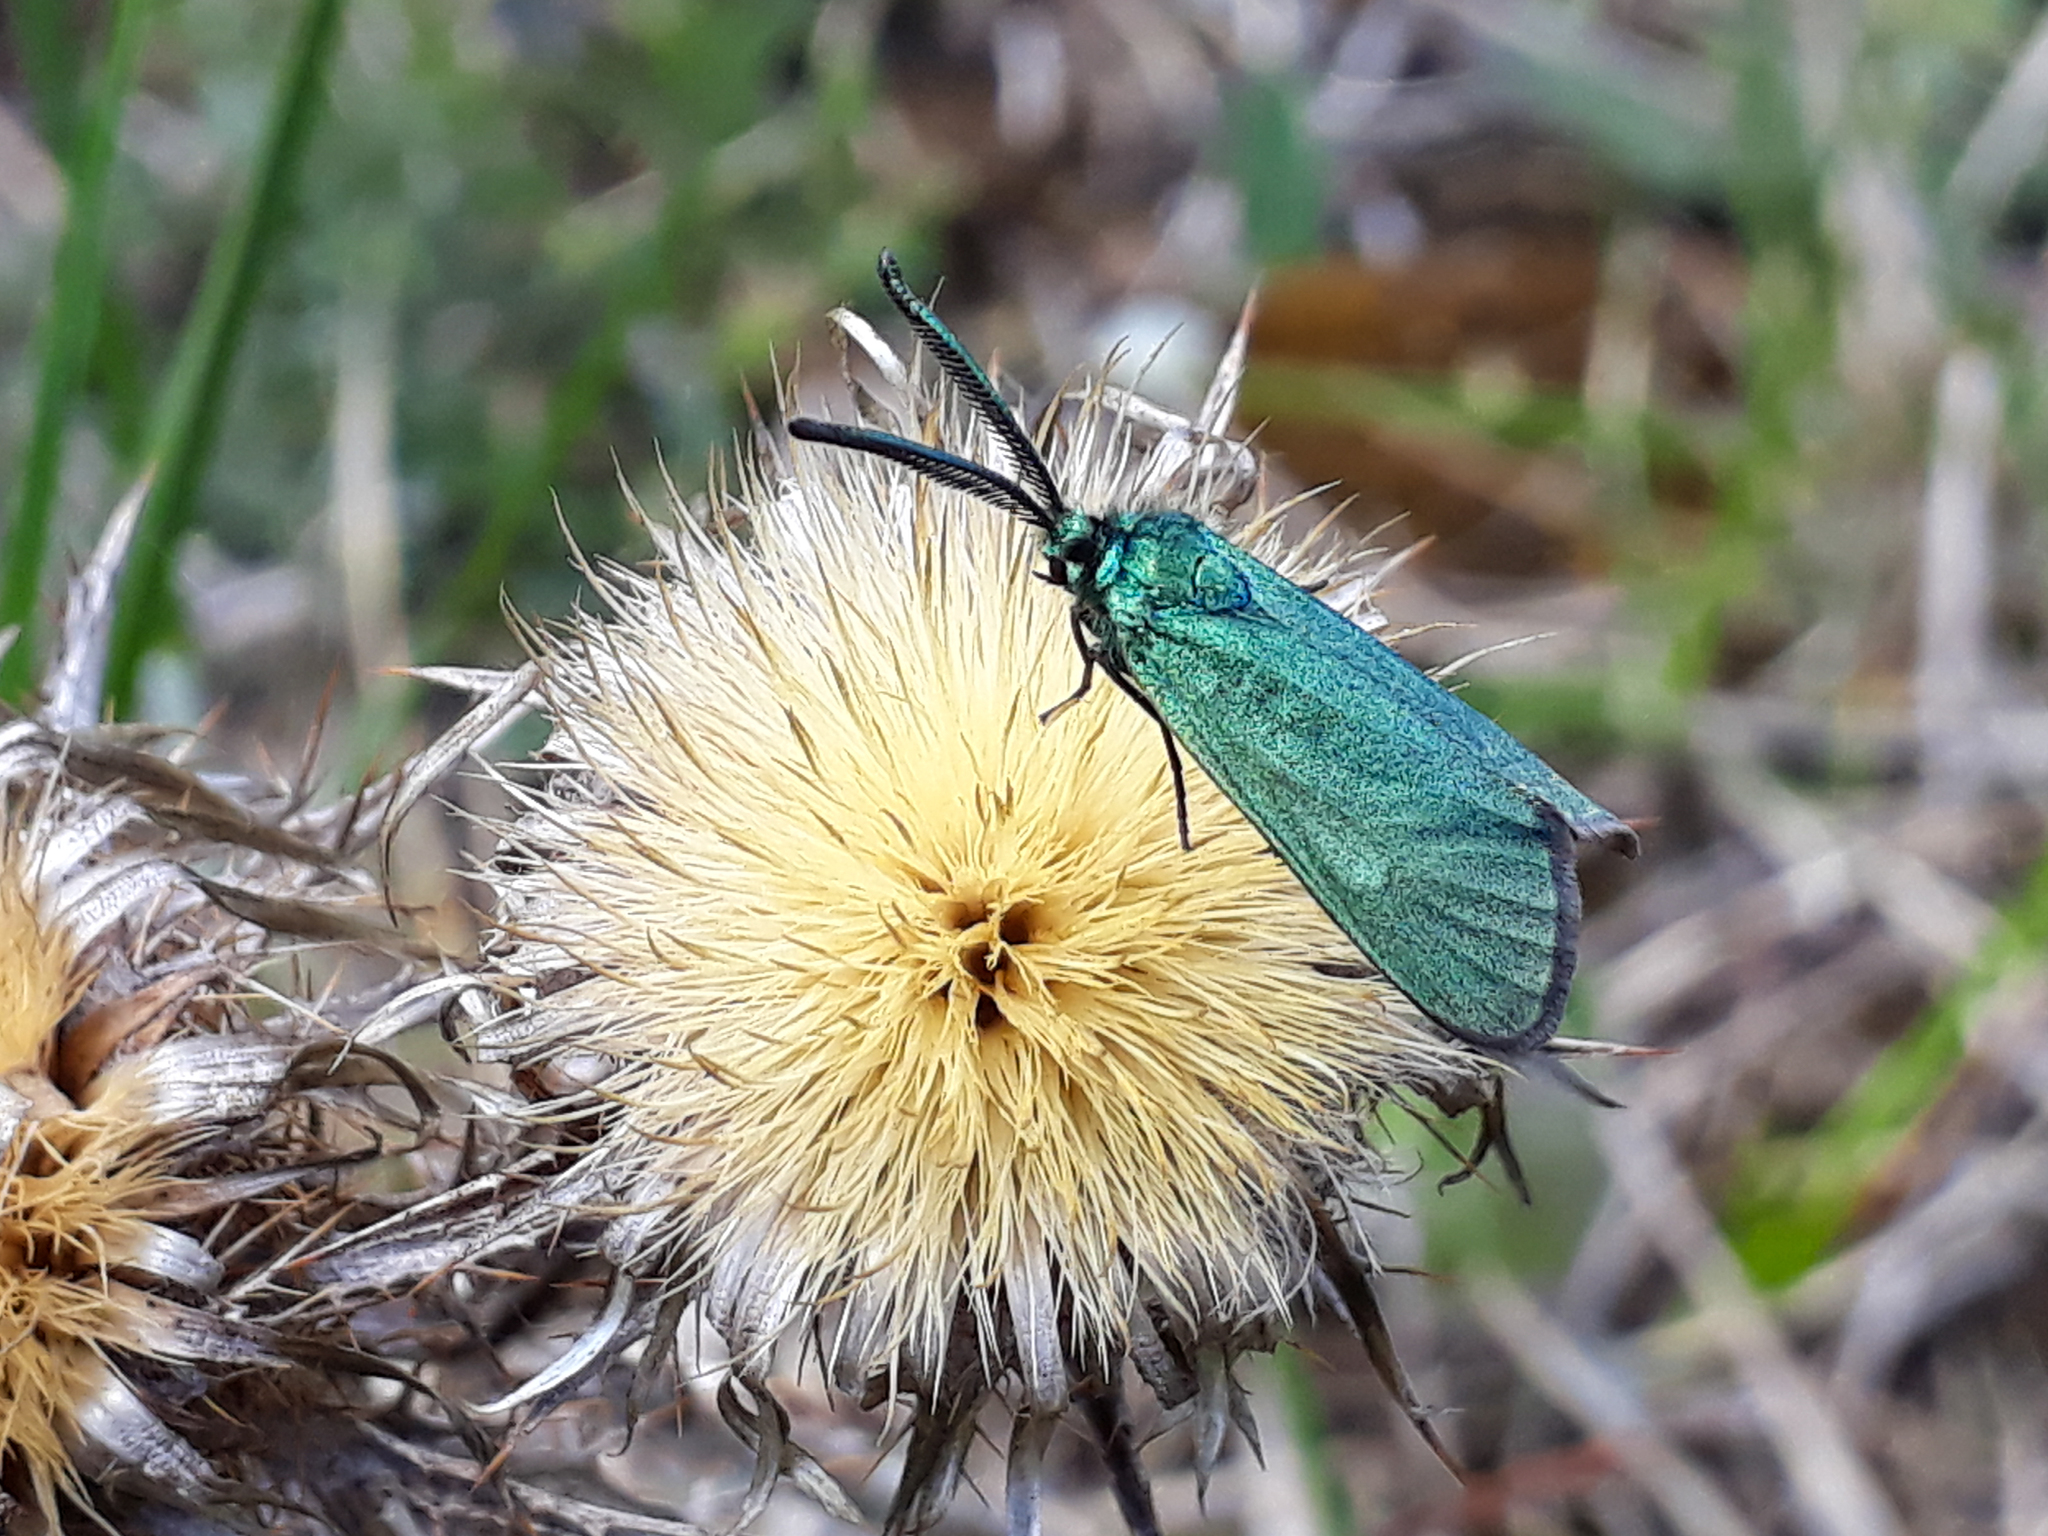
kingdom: Animalia
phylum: Arthropoda
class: Insecta
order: Lepidoptera
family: Zygaenidae
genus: Adscita
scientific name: Adscita statices
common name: Forester
